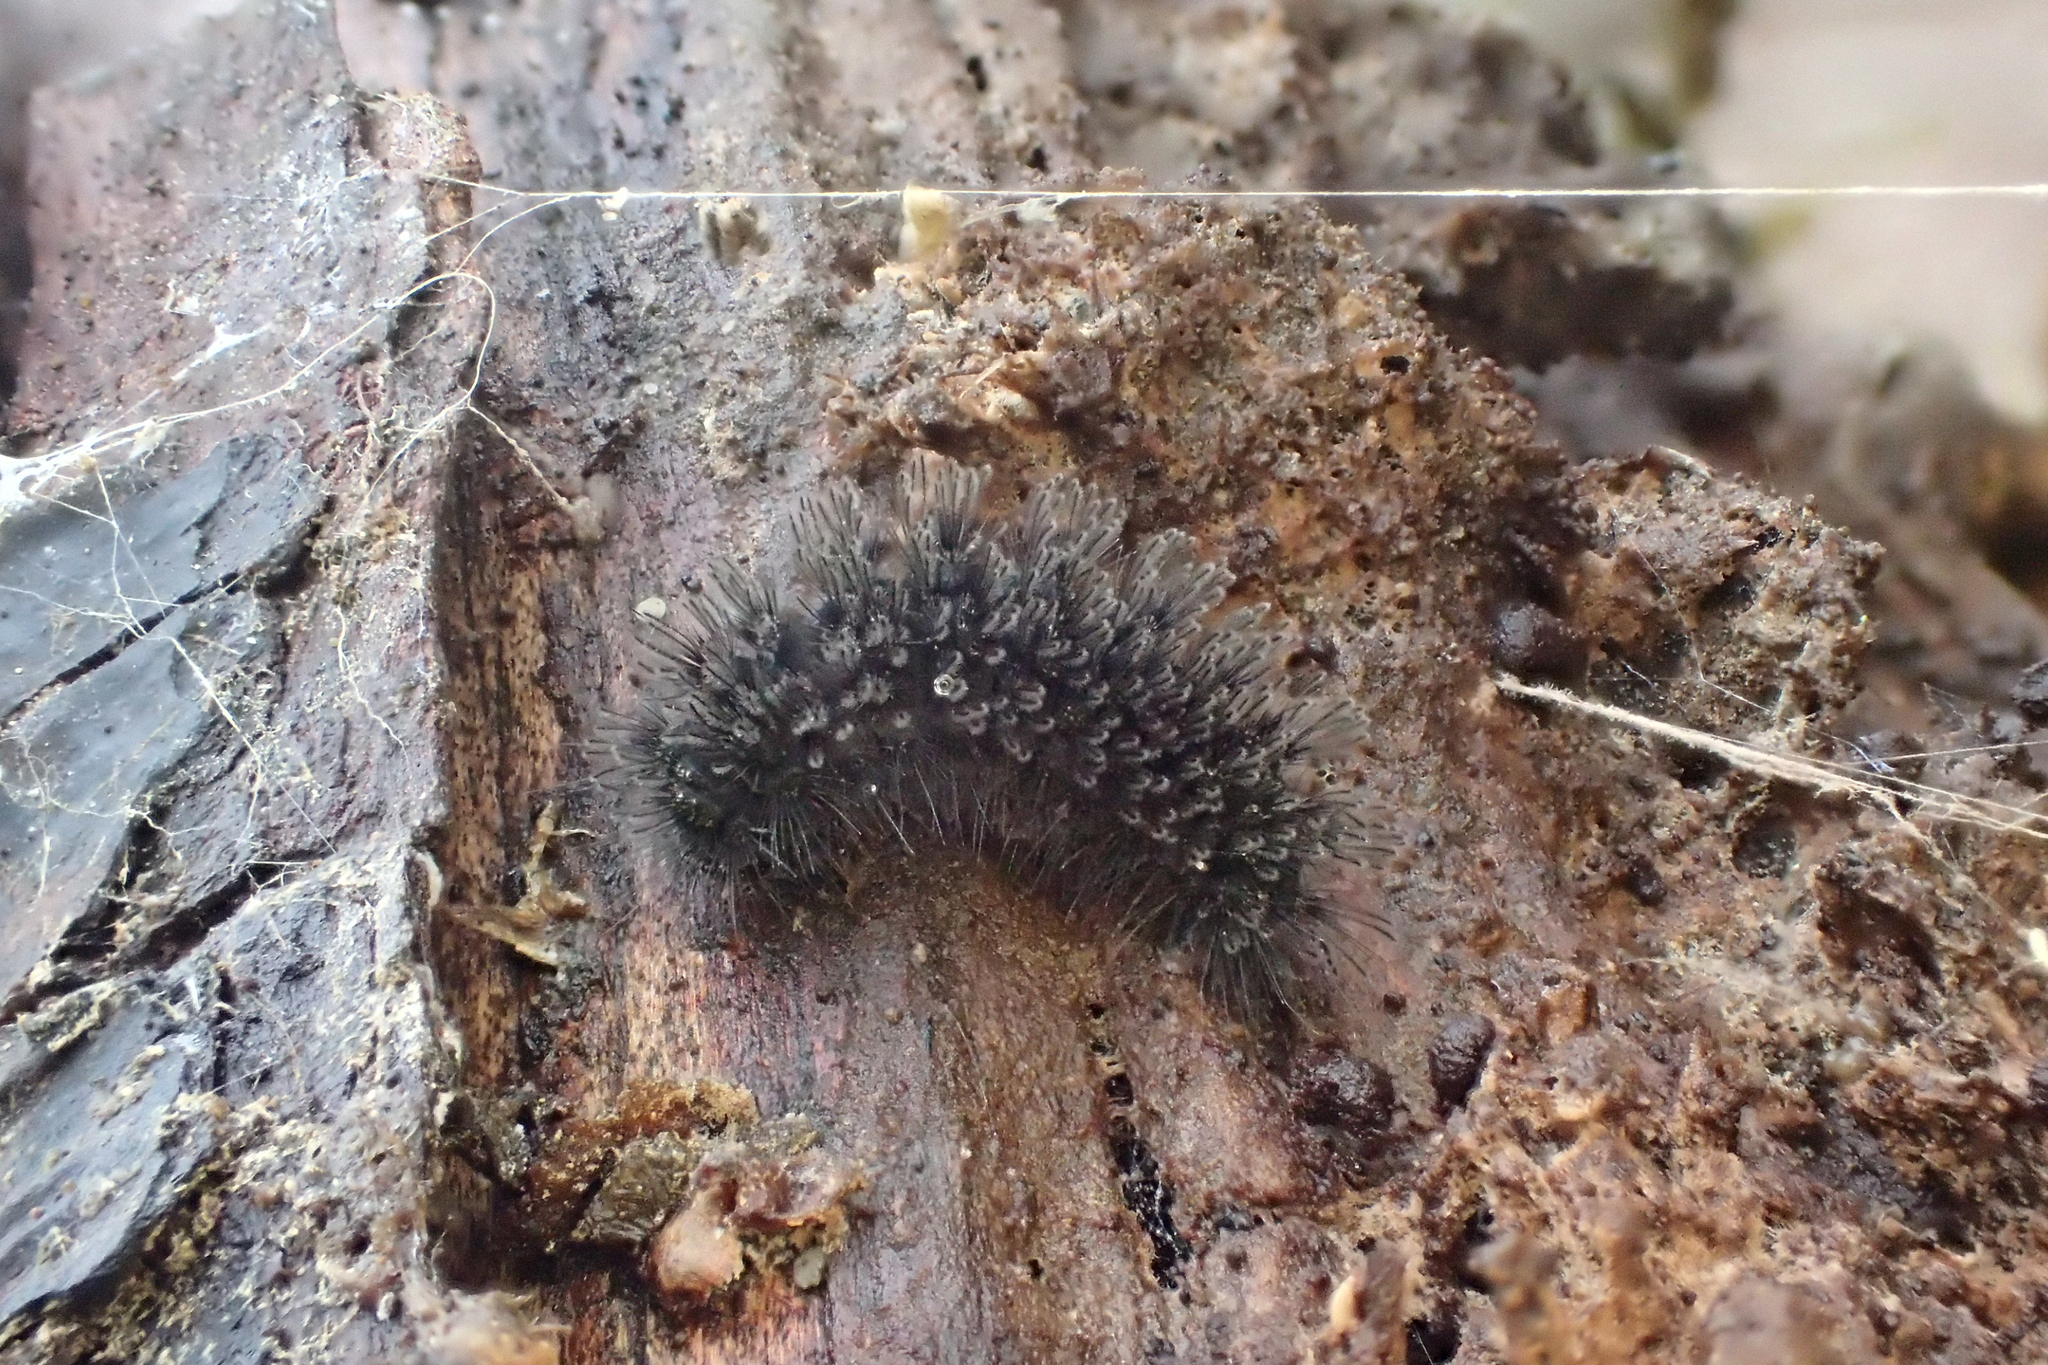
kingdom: Animalia
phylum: Arthropoda
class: Insecta
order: Lepidoptera
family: Erebidae
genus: Cybosia
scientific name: Cybosia mesomella
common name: Four-dotted footman
